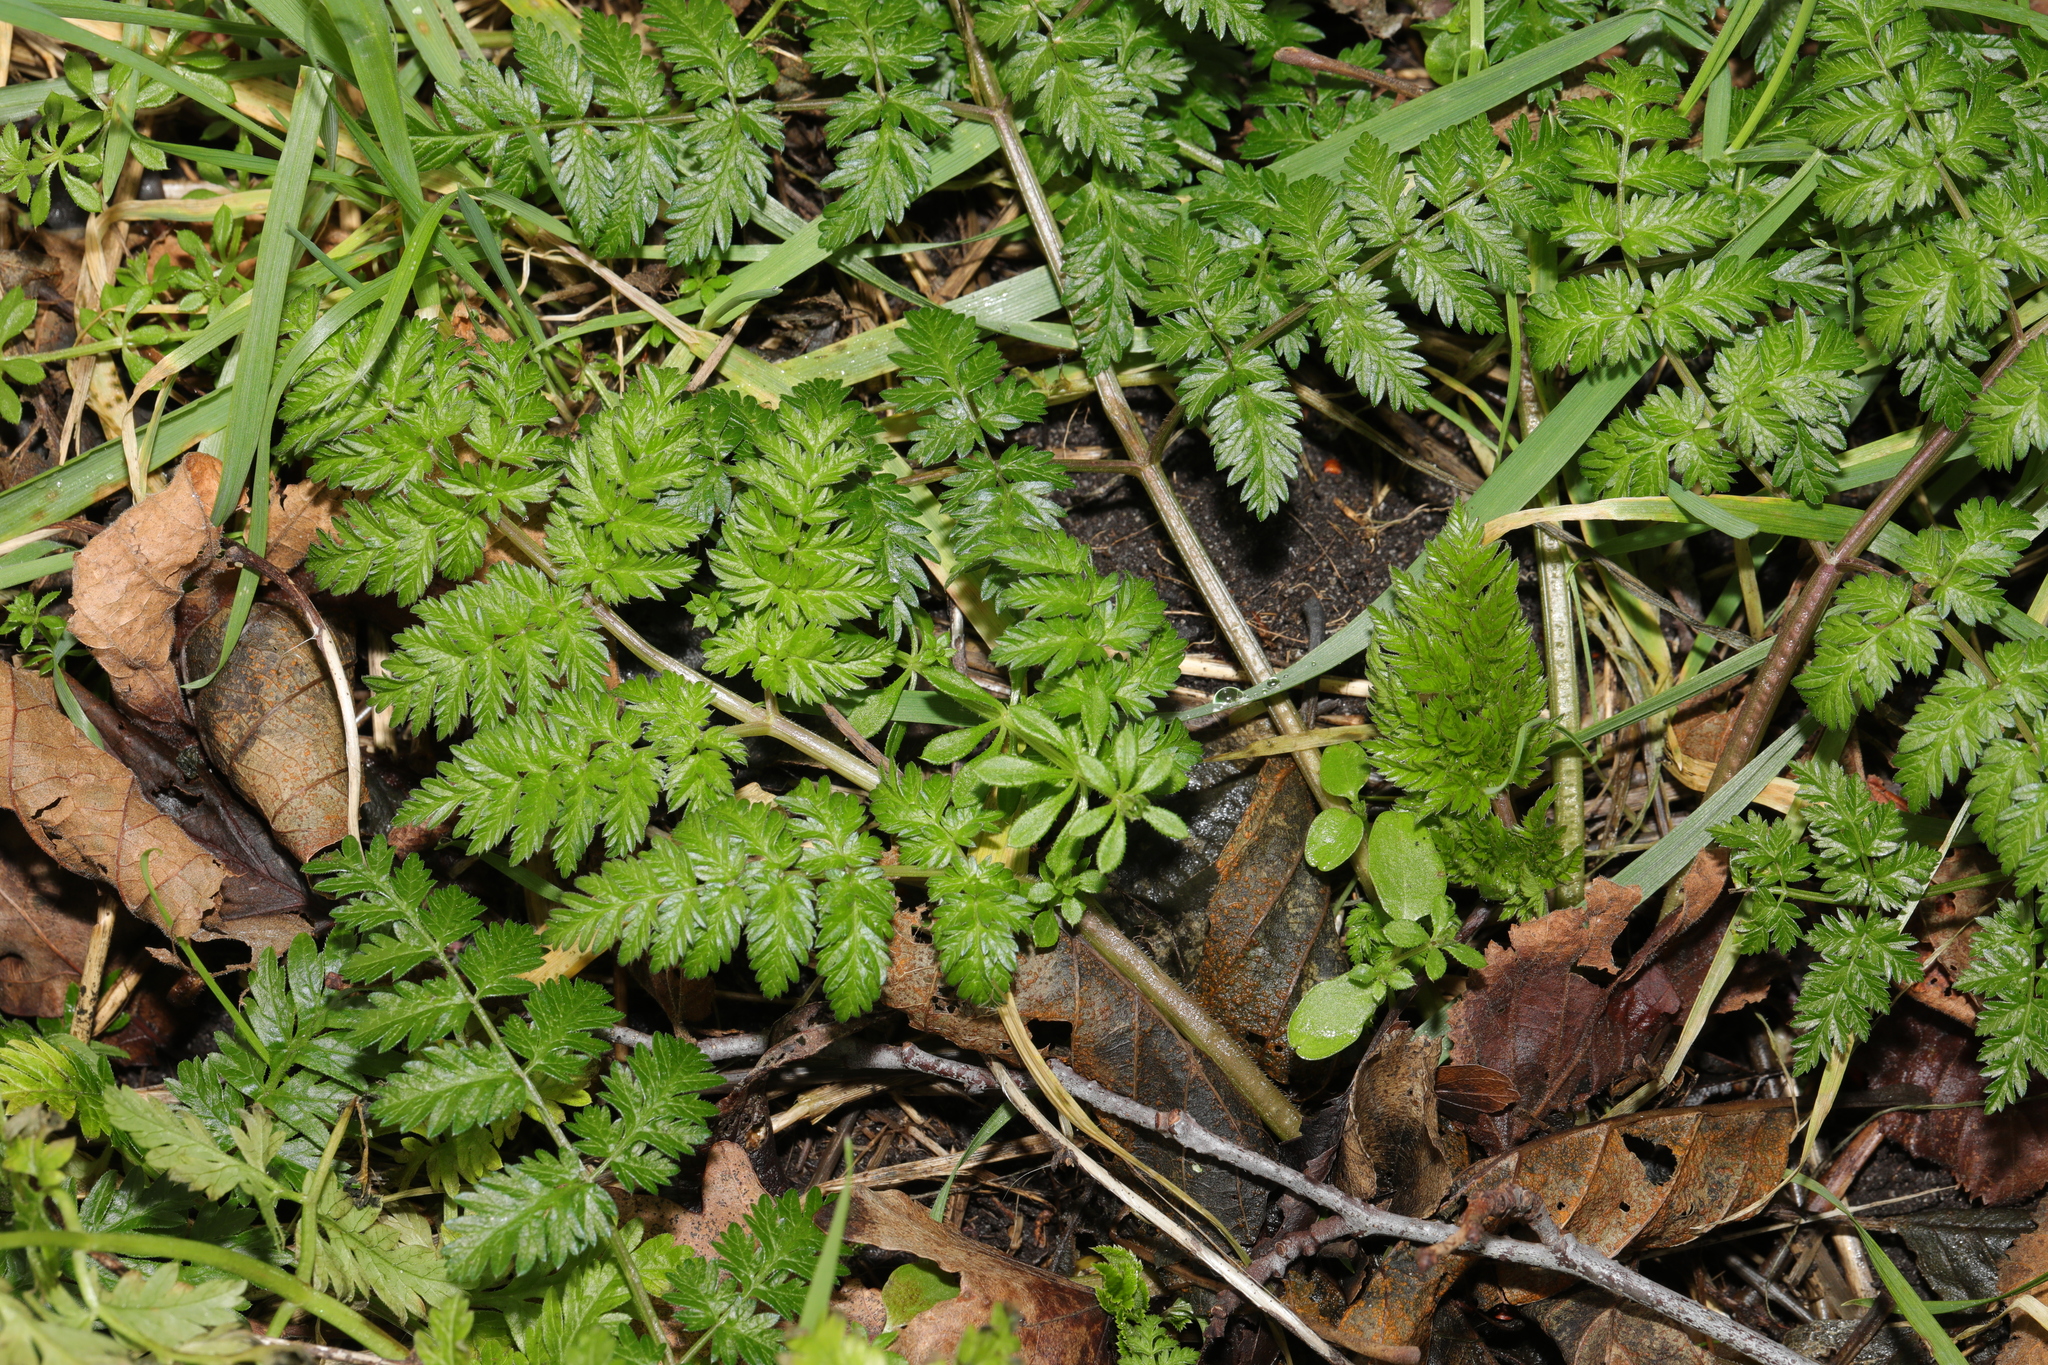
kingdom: Plantae
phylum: Tracheophyta
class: Magnoliopsida
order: Apiales
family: Apiaceae
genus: Anthriscus
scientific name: Anthriscus sylvestris
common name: Cow parsley
